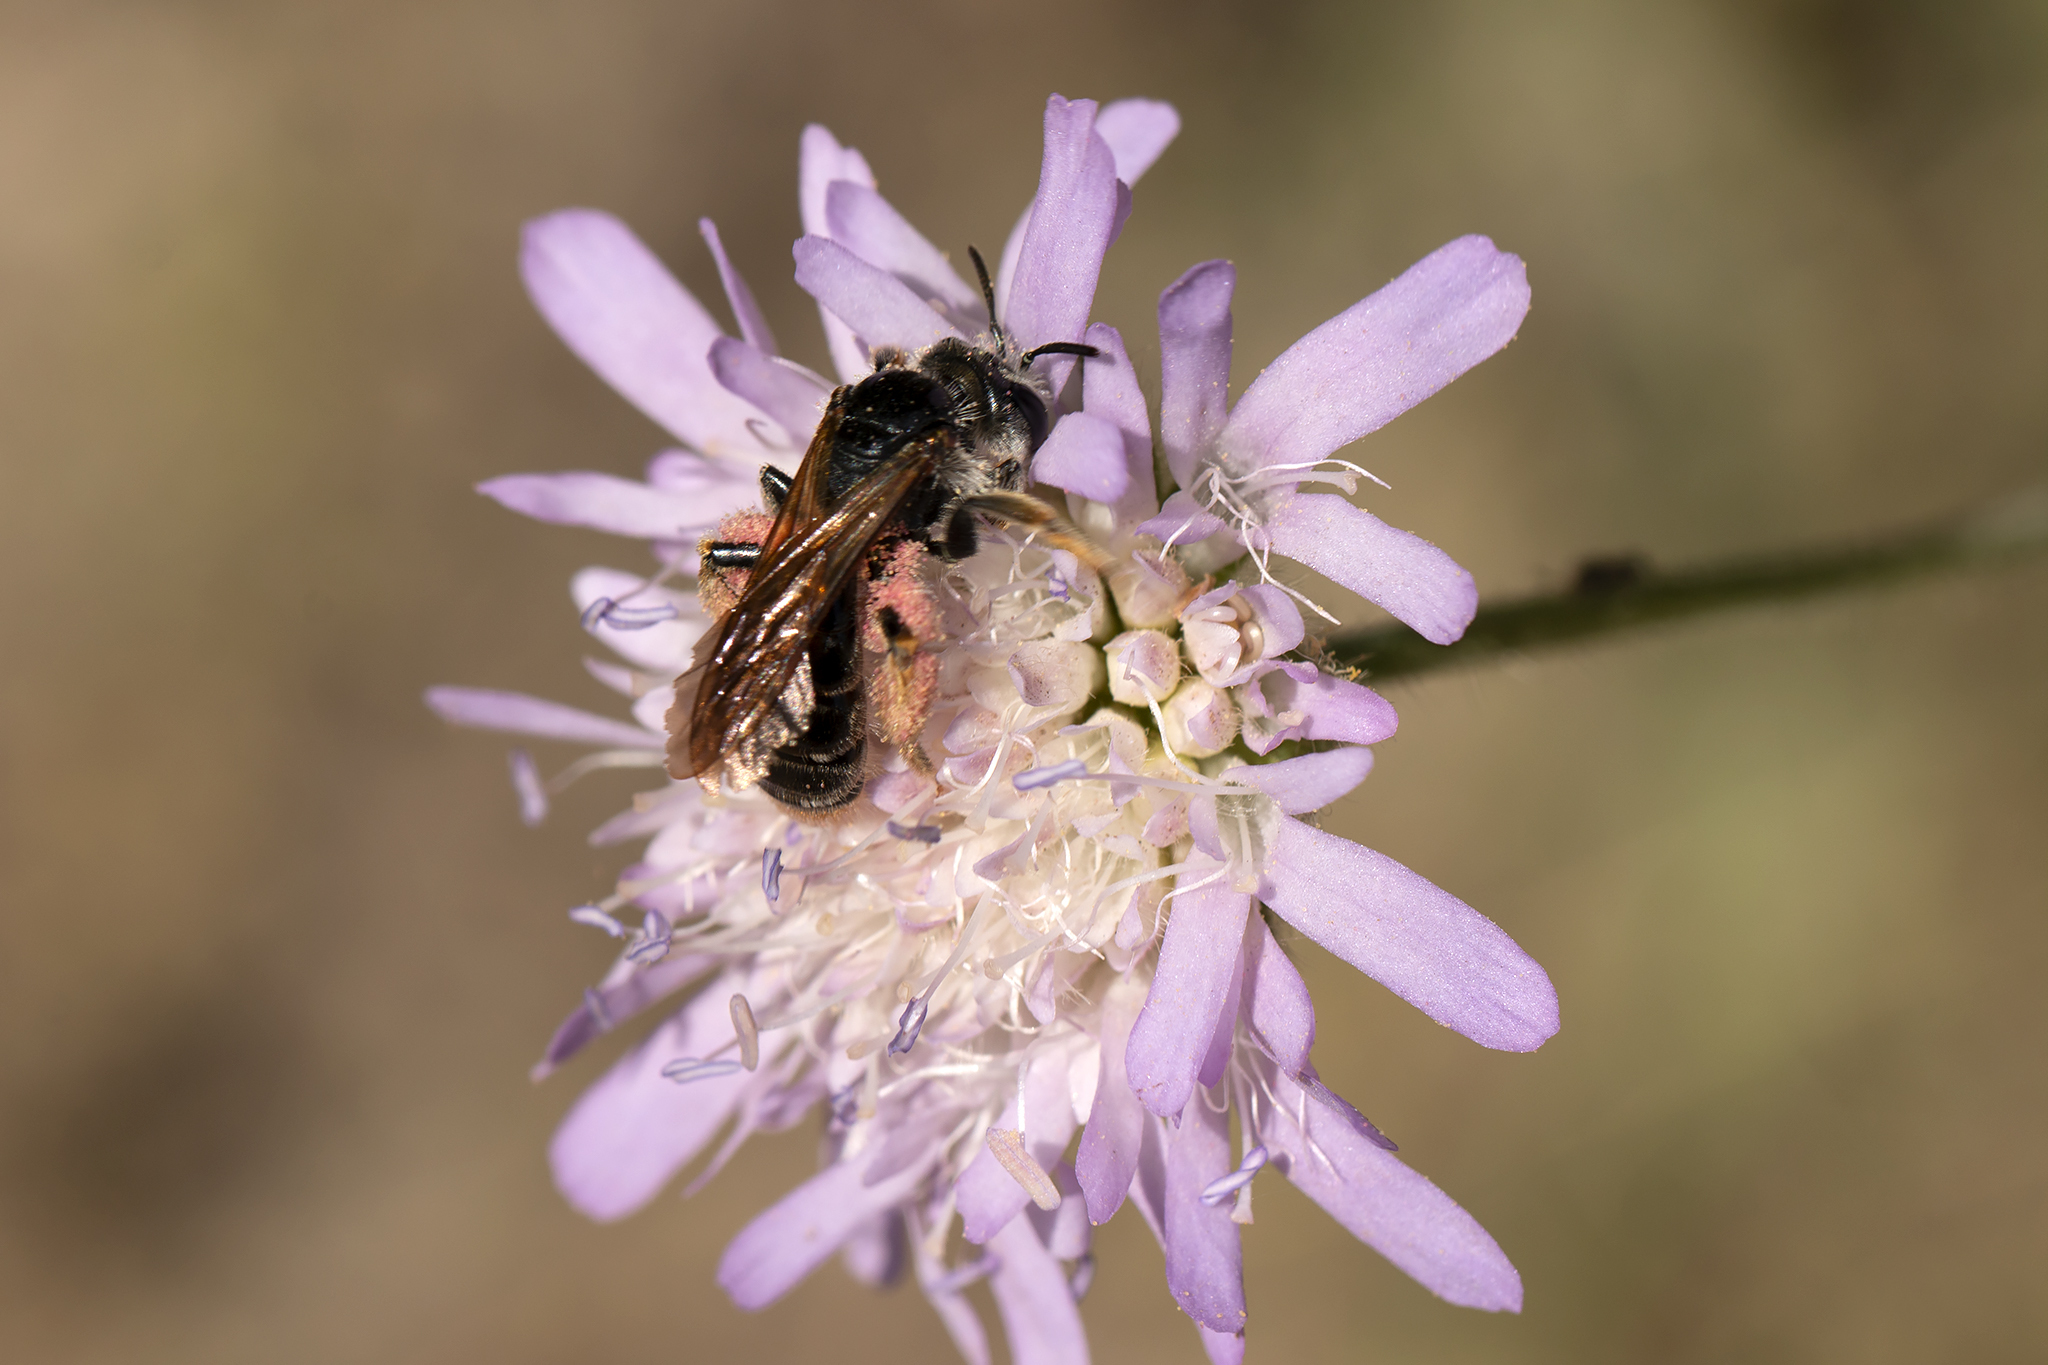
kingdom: Animalia
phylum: Arthropoda
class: Insecta
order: Hymenoptera
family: Andrenidae
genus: Andrena
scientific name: Andrena hattorfiana
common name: Large scabious mining bee
